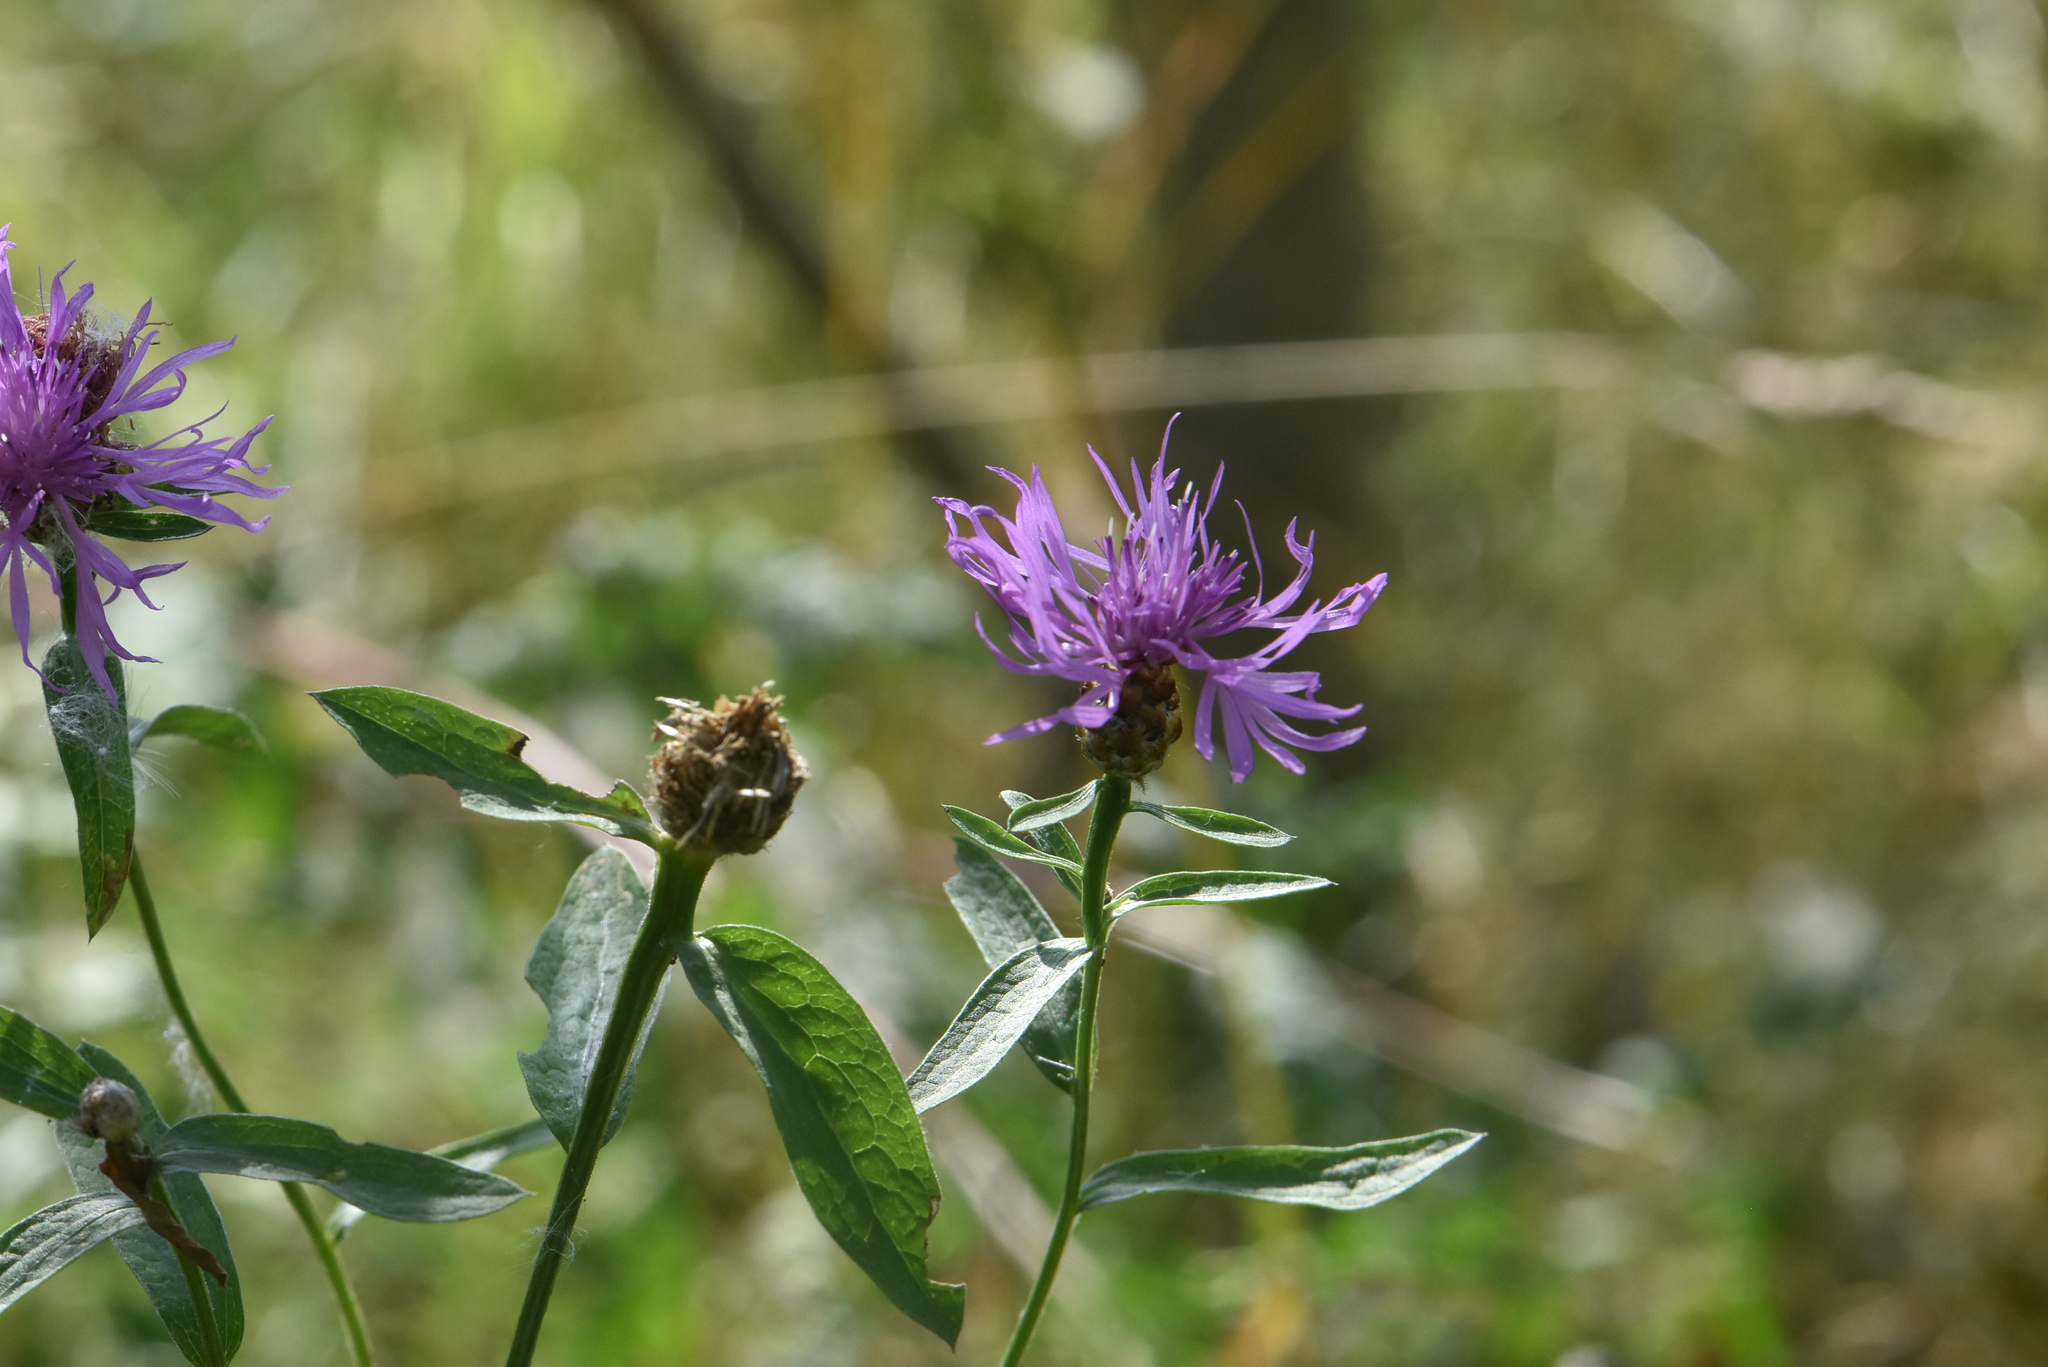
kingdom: Plantae
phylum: Tracheophyta
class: Magnoliopsida
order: Asterales
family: Asteraceae
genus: Centaurea
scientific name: Centaurea jacea
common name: Brown knapweed
